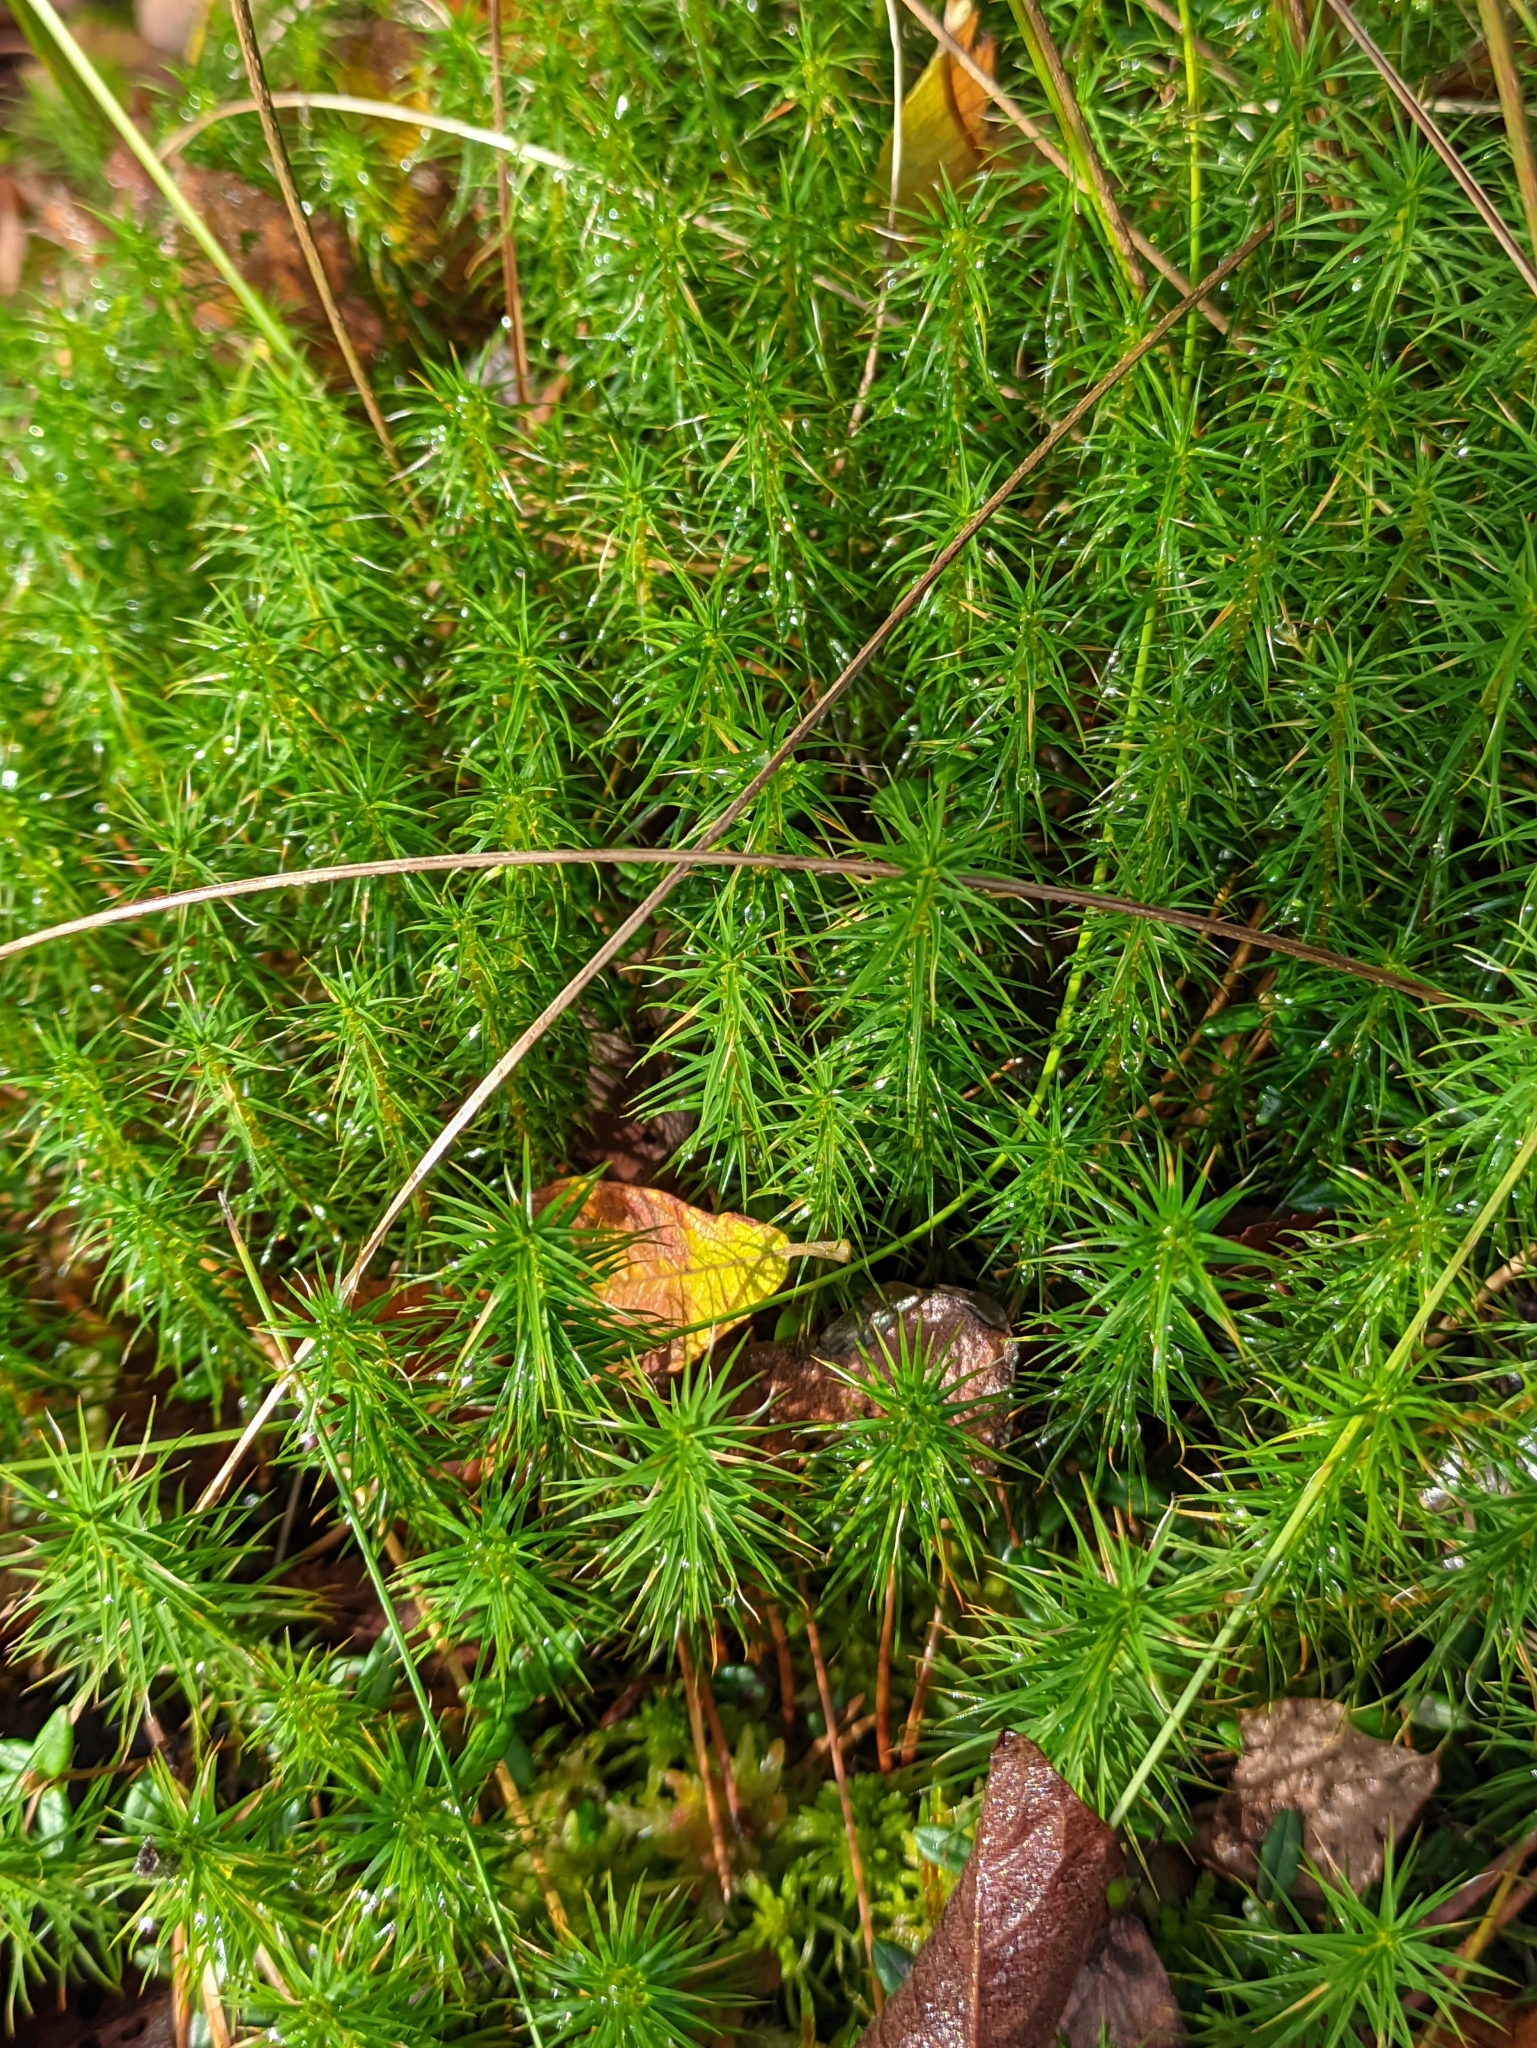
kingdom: Plantae
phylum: Bryophyta
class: Polytrichopsida
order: Polytrichales
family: Polytrichaceae
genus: Polytrichum
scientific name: Polytrichum commune
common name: Common haircap
